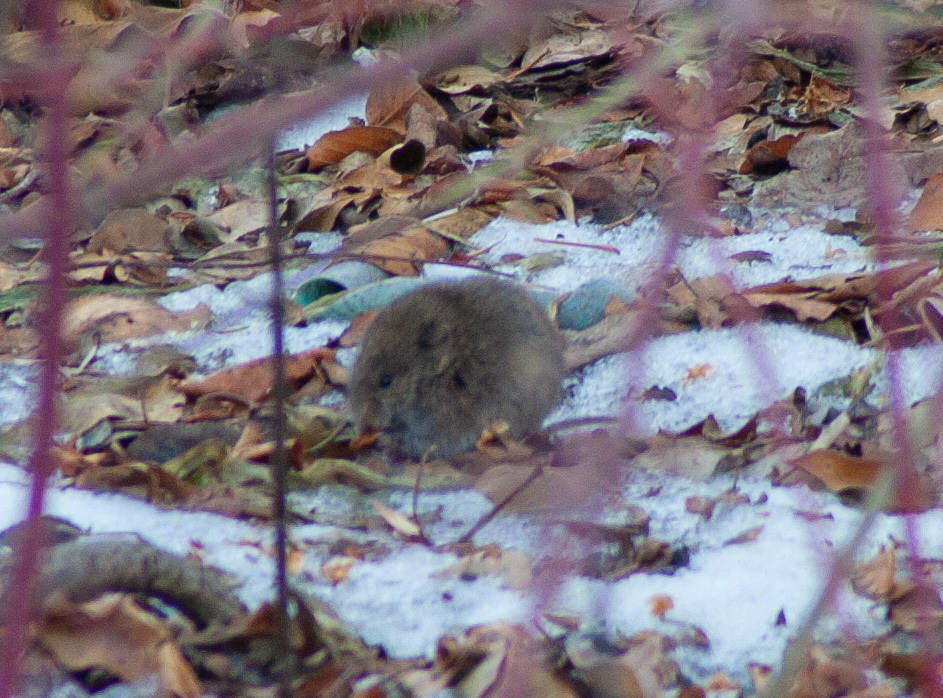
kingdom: Animalia
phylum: Chordata
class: Mammalia
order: Rodentia
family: Cricetidae
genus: Microtus
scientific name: Microtus pennsylvanicus
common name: Meadow vole
